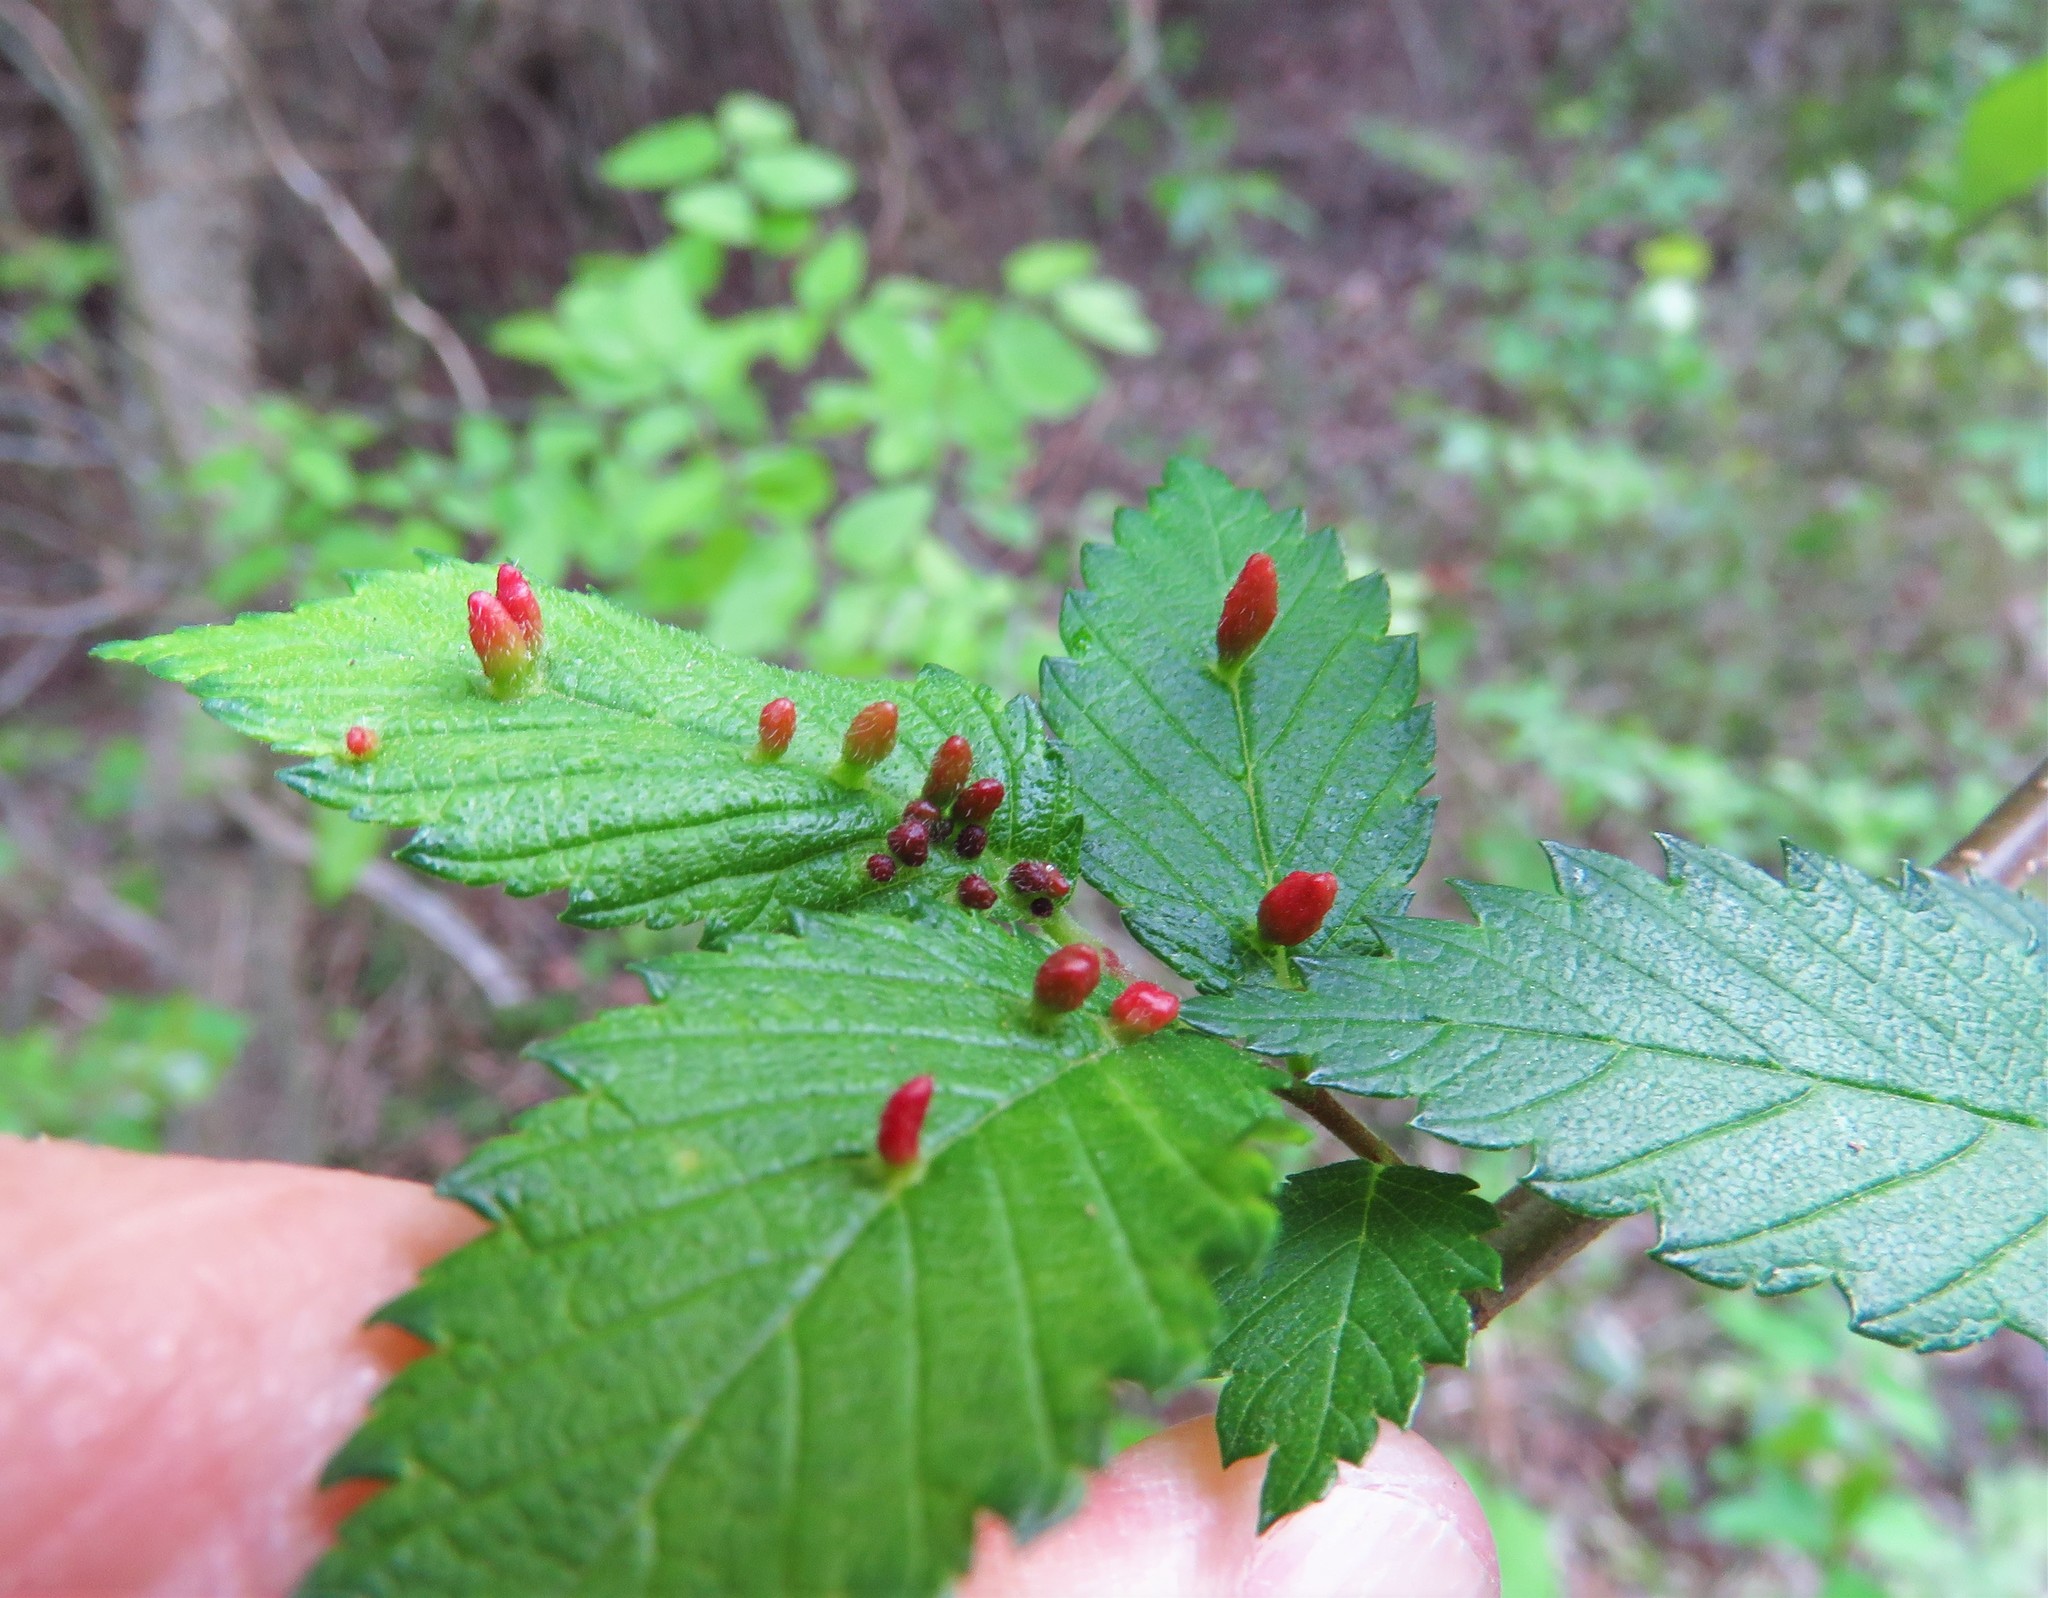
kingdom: Animalia
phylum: Arthropoda
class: Arachnida
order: Trombidiformes
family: Eriophyidae
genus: Aceria
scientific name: Aceria
